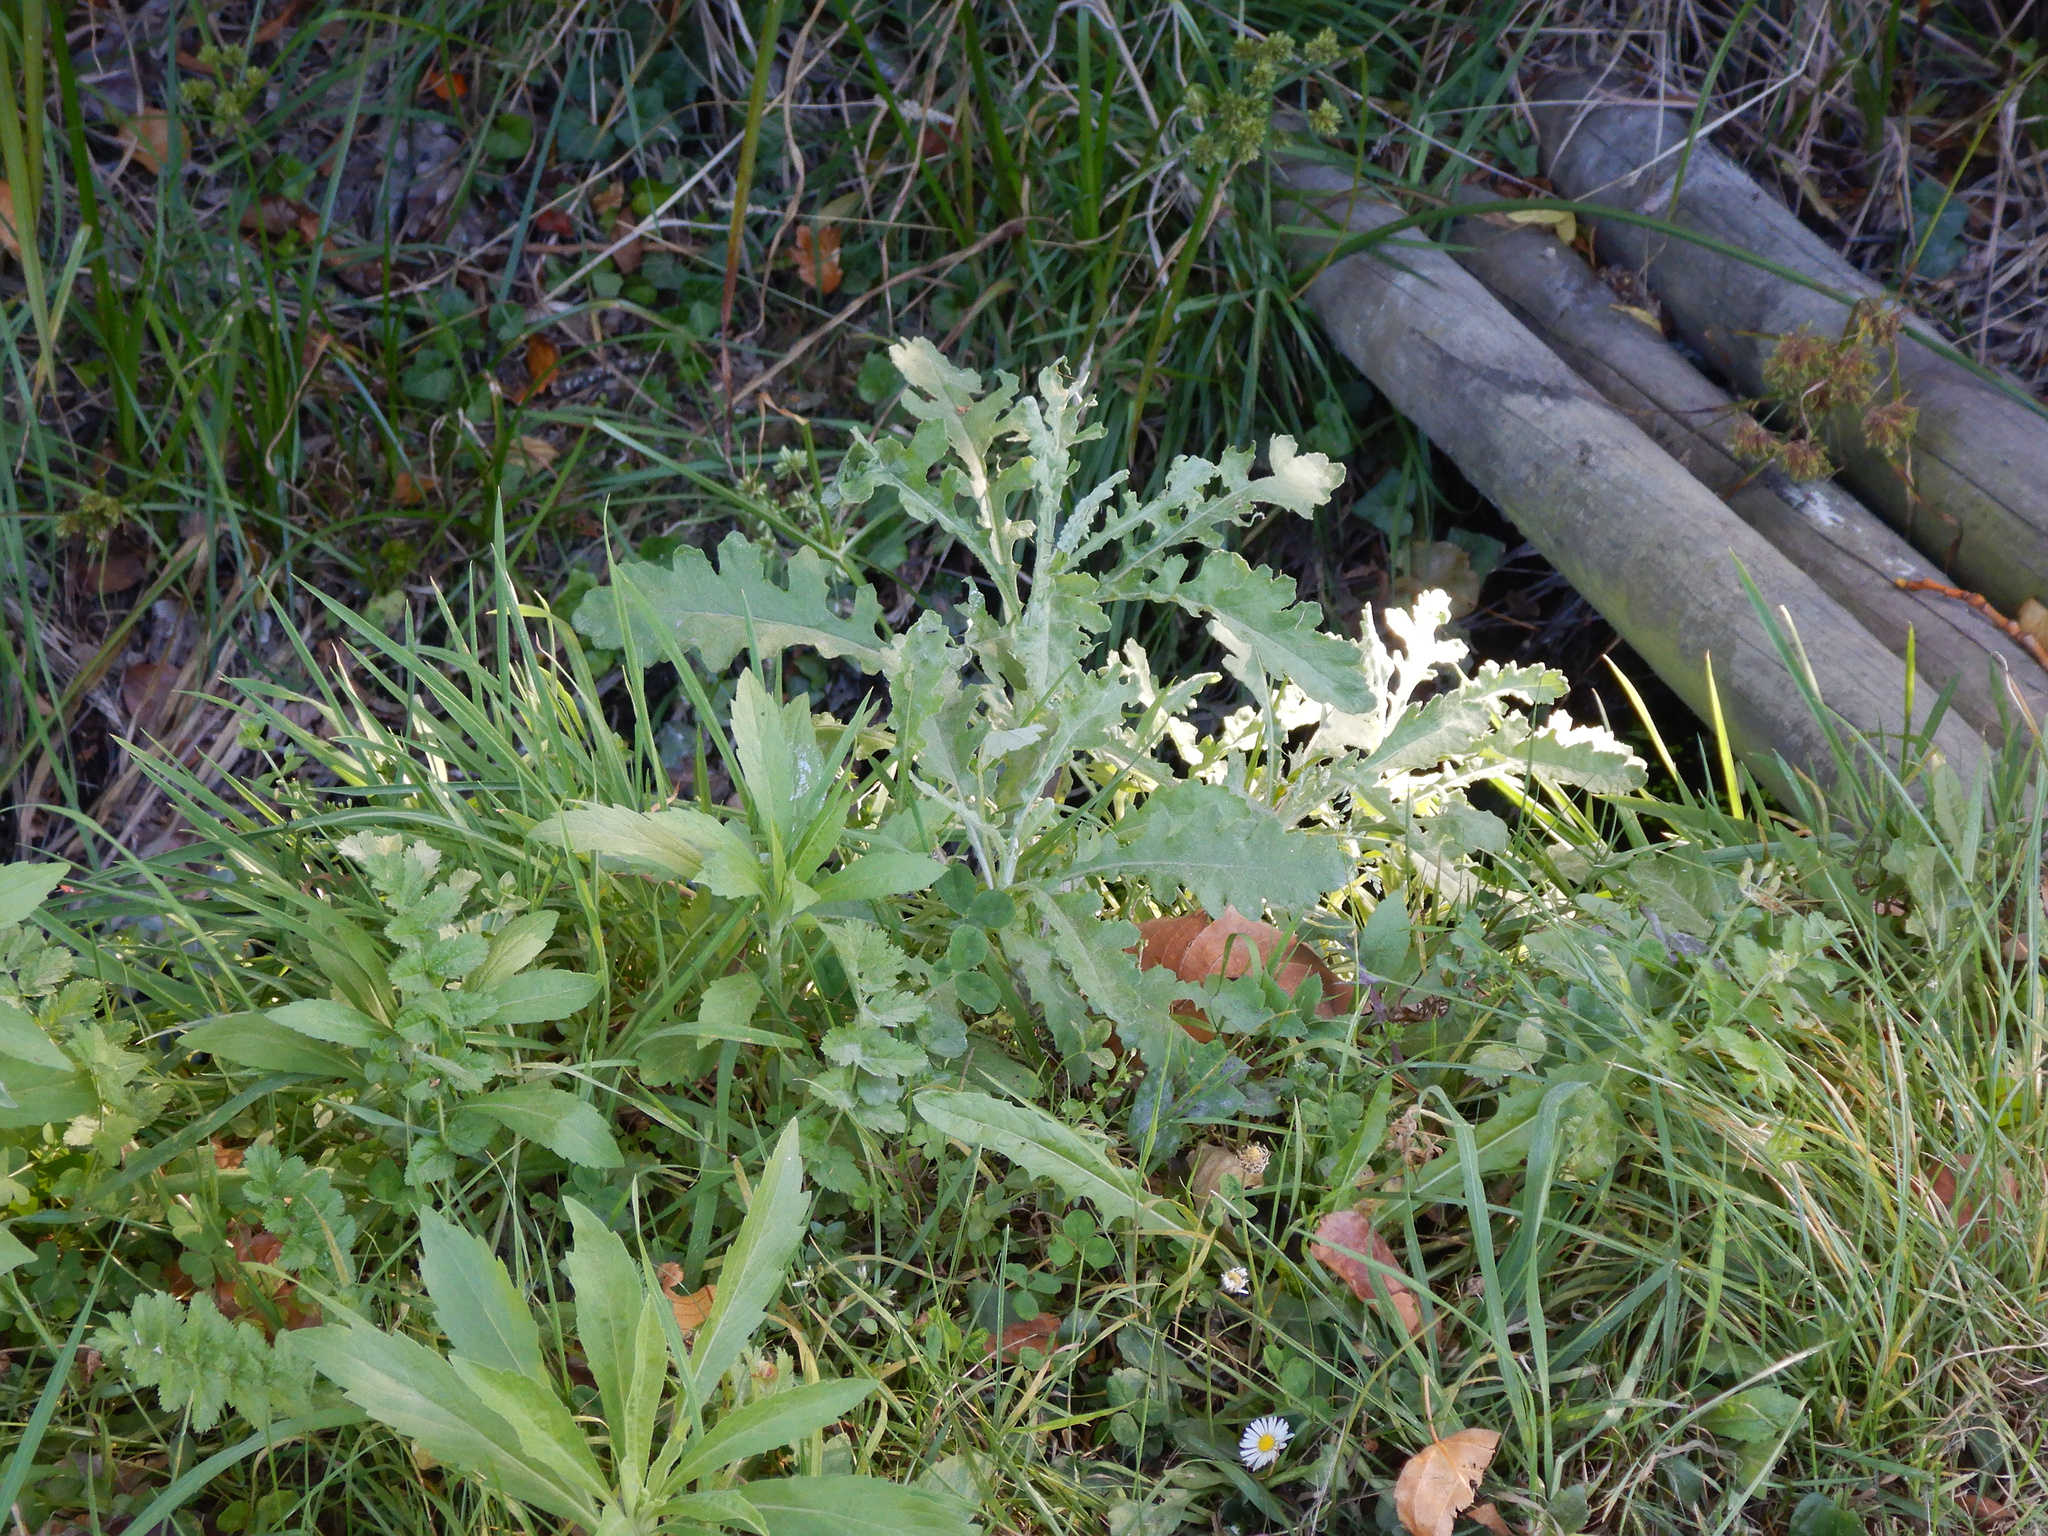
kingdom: Plantae
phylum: Tracheophyta
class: Magnoliopsida
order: Asterales
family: Asteraceae
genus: Senecio
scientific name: Senecio glomeratus
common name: Cutleaf burnweed
